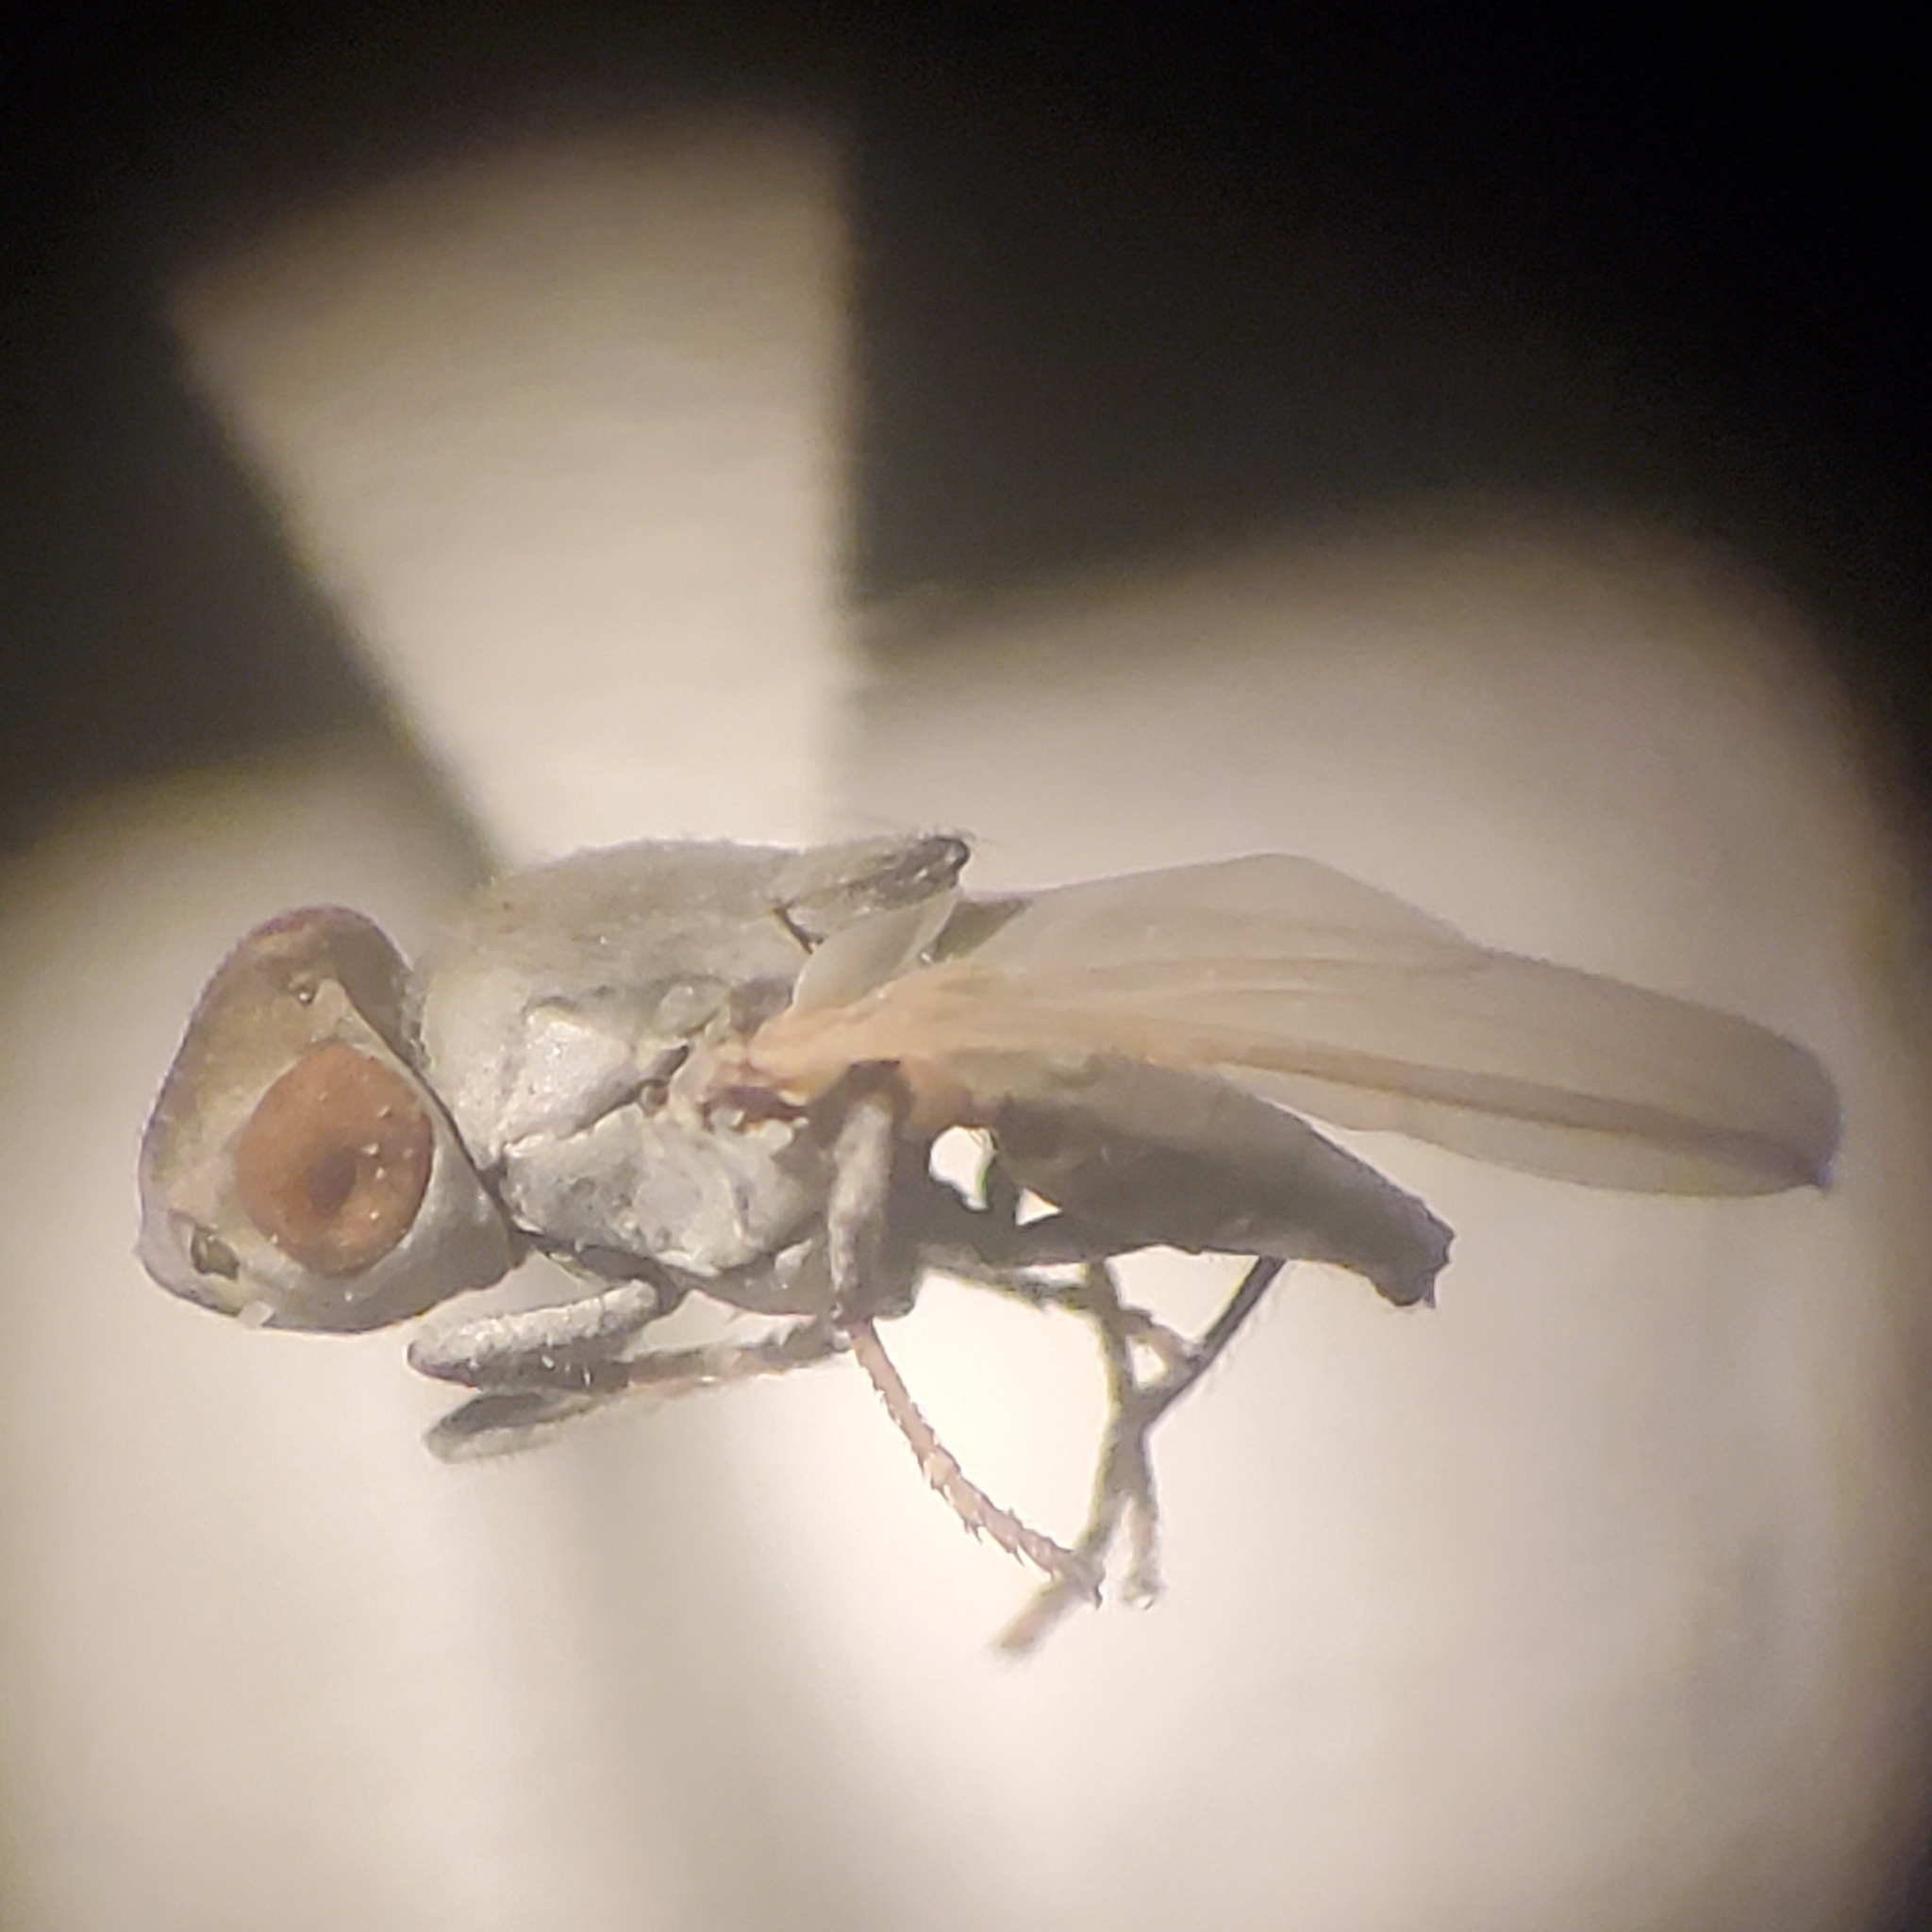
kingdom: Animalia
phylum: Arthropoda
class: Insecta
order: Diptera
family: Ephydridae
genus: Lipochaeta
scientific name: Lipochaeta slossonae
